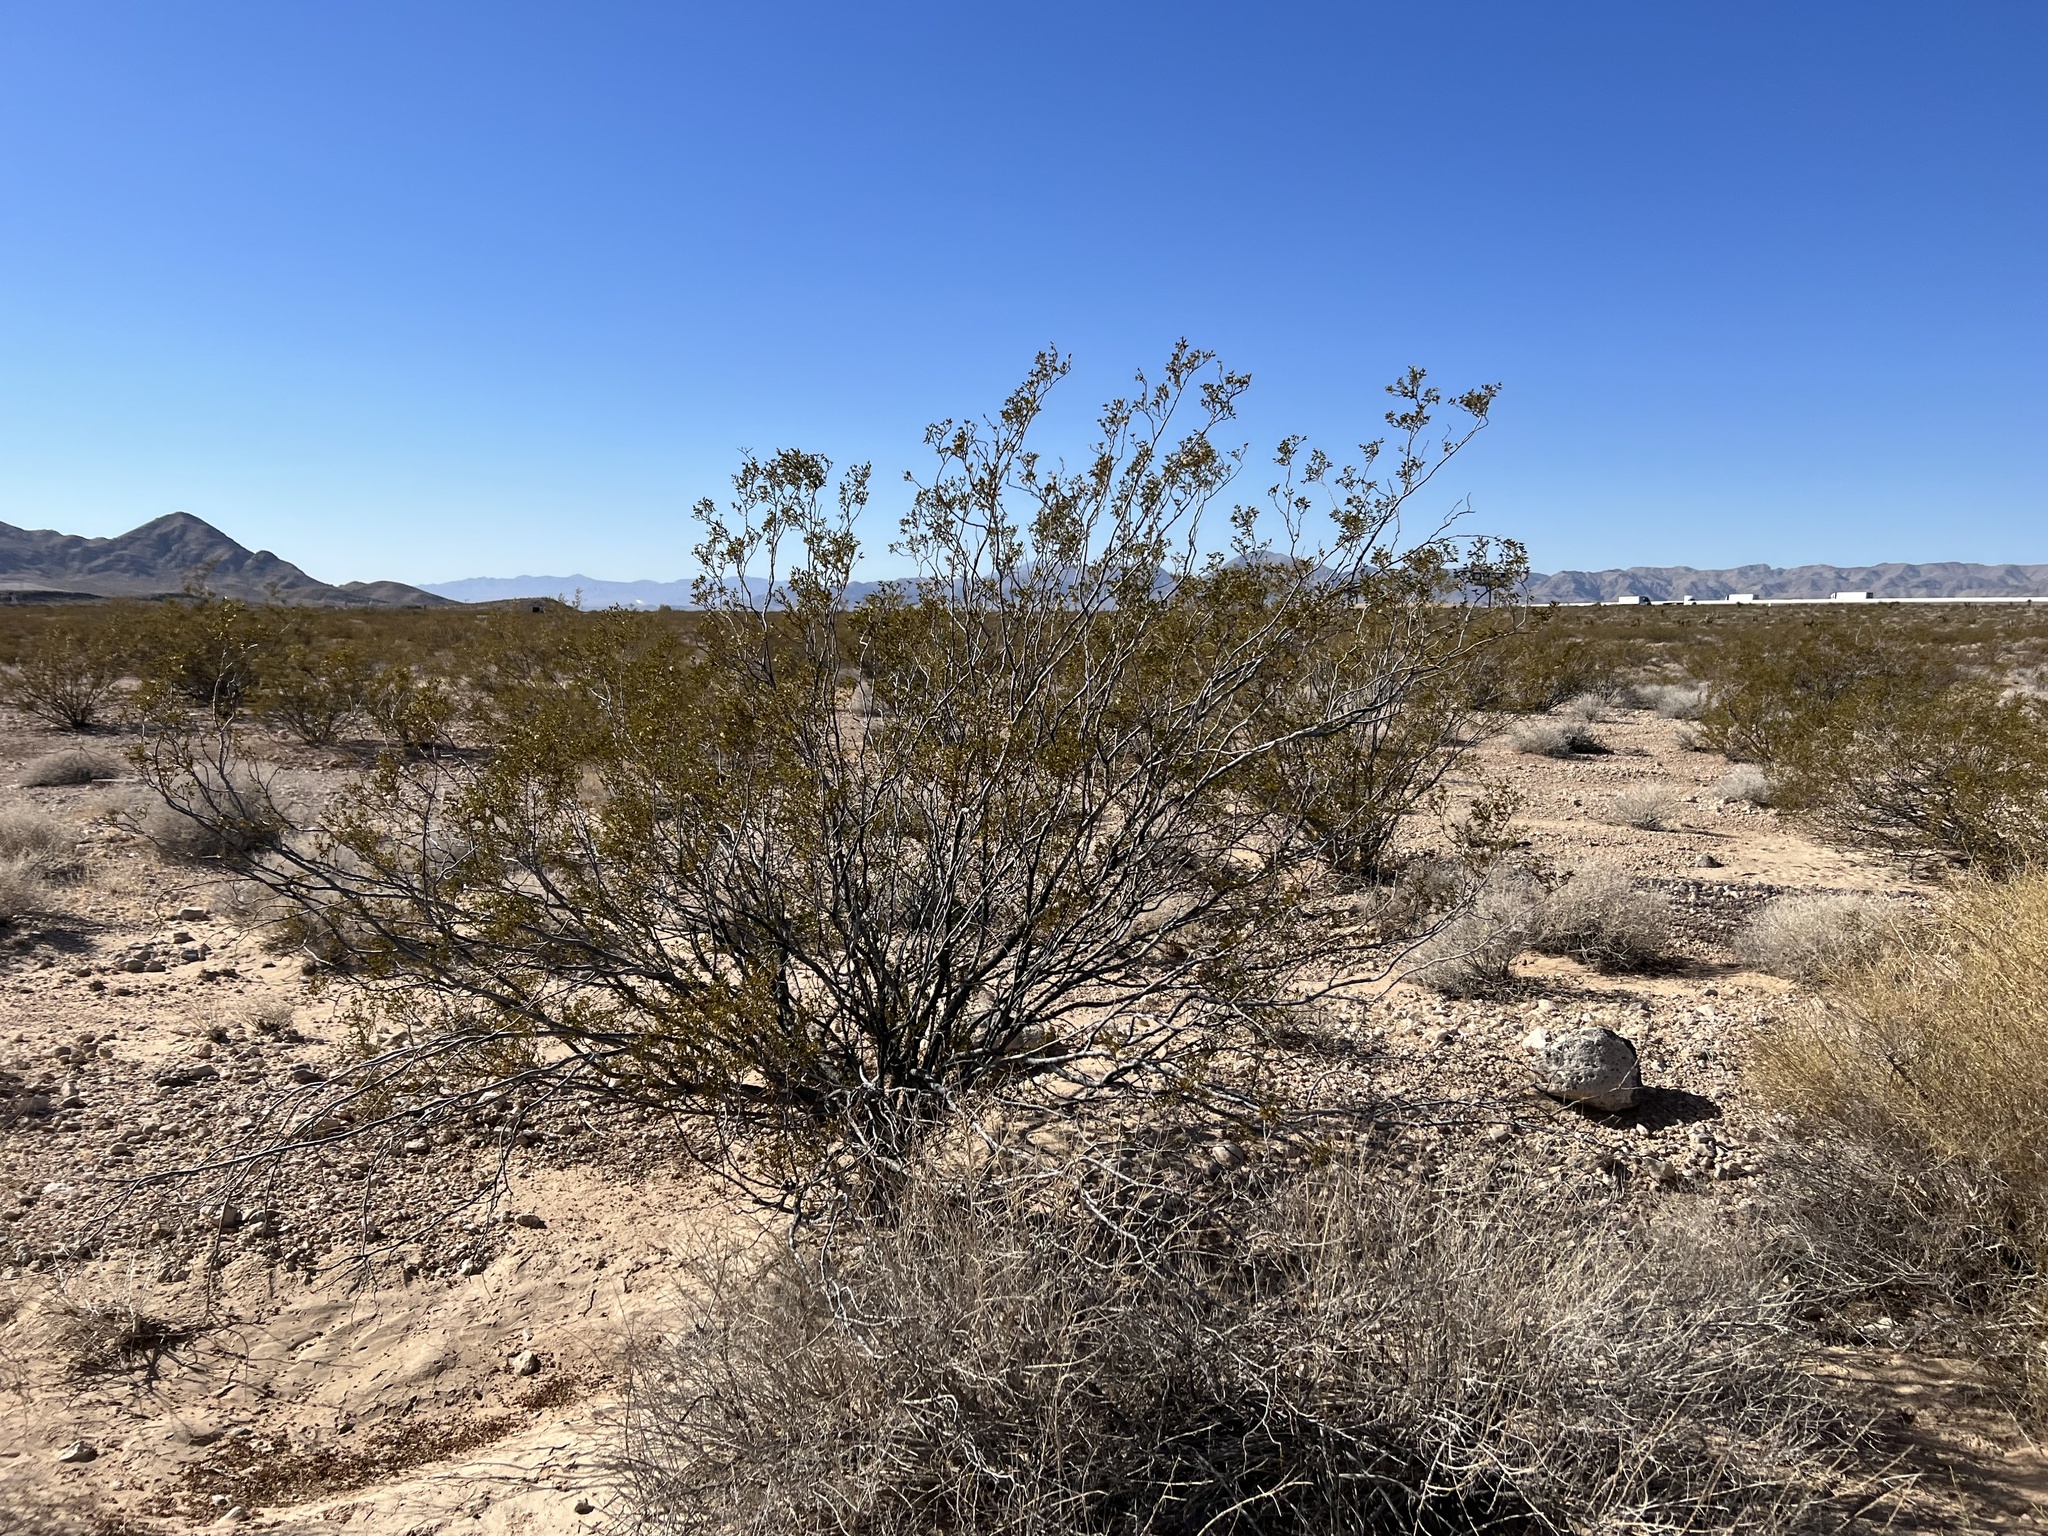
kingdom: Plantae
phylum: Tracheophyta
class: Magnoliopsida
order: Zygophyllales
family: Zygophyllaceae
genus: Larrea
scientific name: Larrea tridentata
